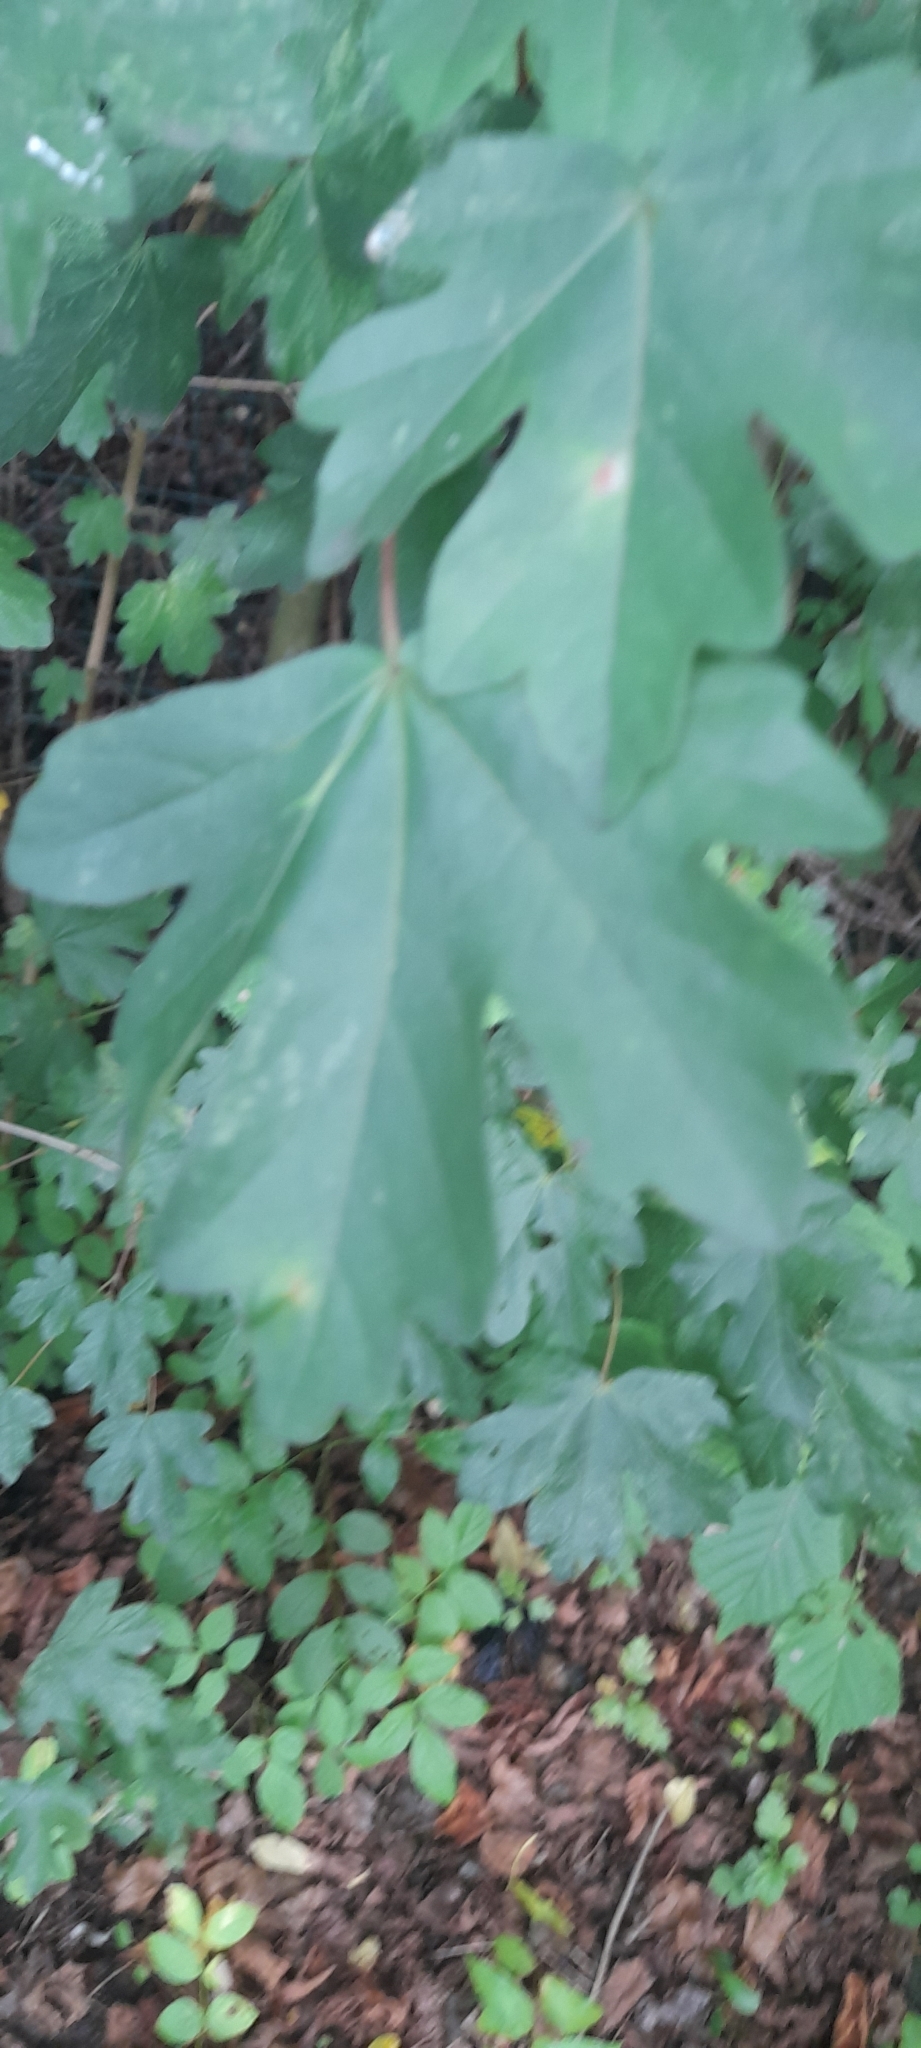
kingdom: Plantae
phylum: Tracheophyta
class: Magnoliopsida
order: Sapindales
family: Sapindaceae
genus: Acer
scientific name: Acer campestre
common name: Field maple
